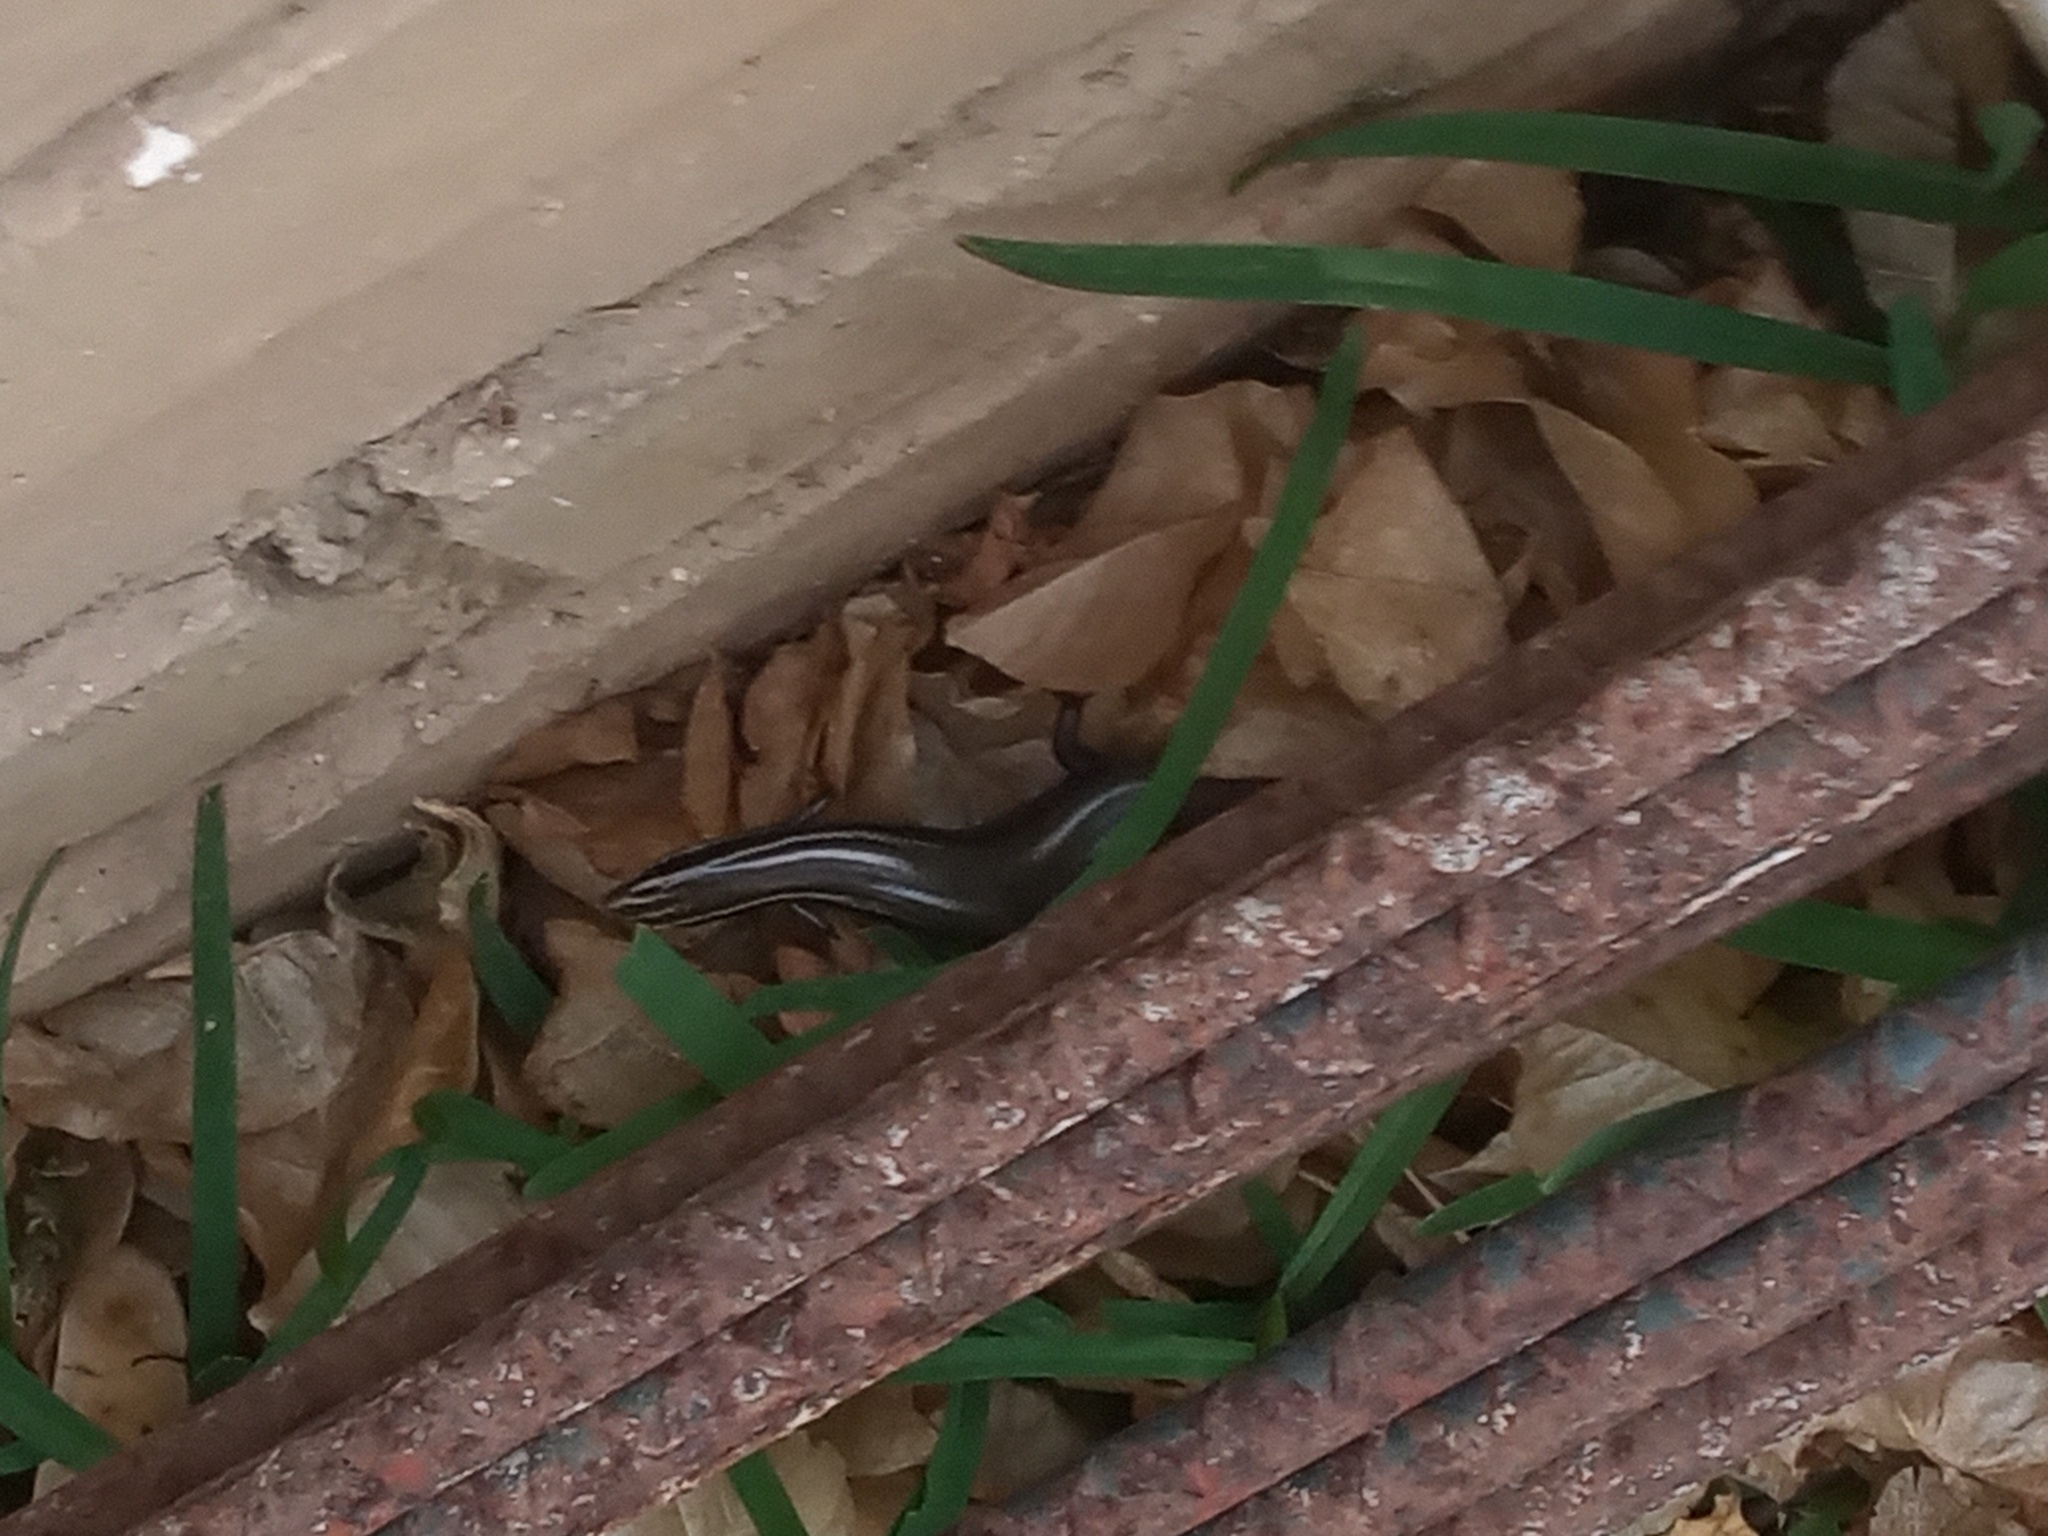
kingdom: Animalia
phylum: Chordata
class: Squamata
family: Scincidae
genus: Plestiodon
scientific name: Plestiodon tetragrammus
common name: Four-lined skink
